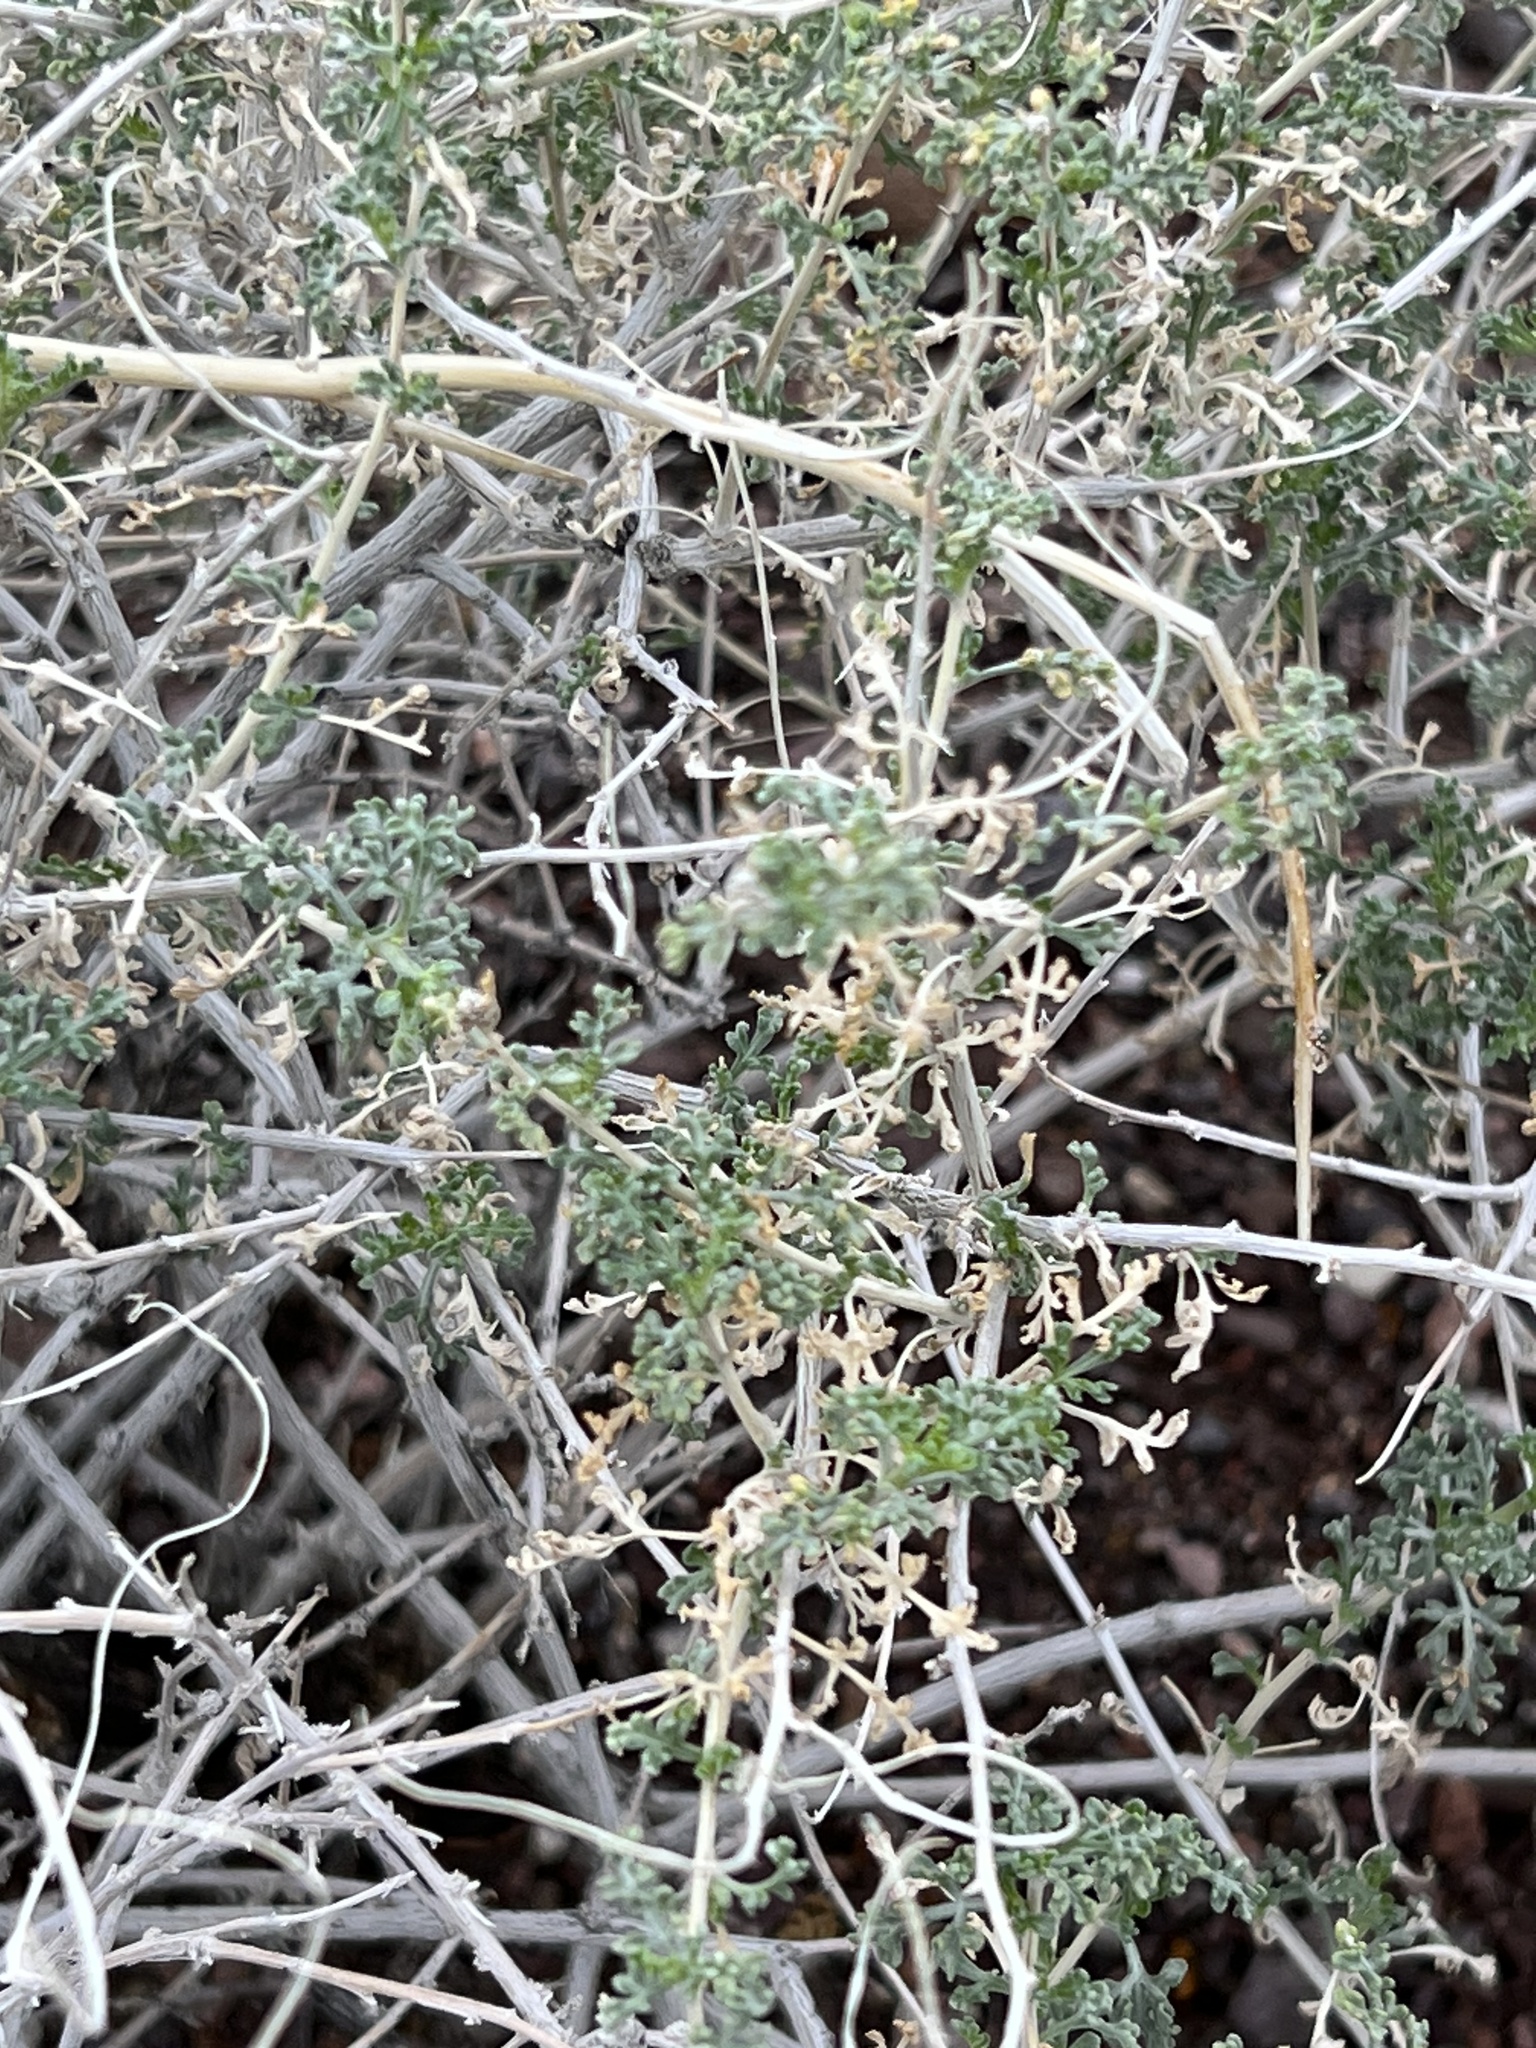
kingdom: Plantae
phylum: Tracheophyta
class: Magnoliopsida
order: Asterales
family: Asteraceae
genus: Ambrosia
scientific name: Ambrosia dumosa
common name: Bur-sage
